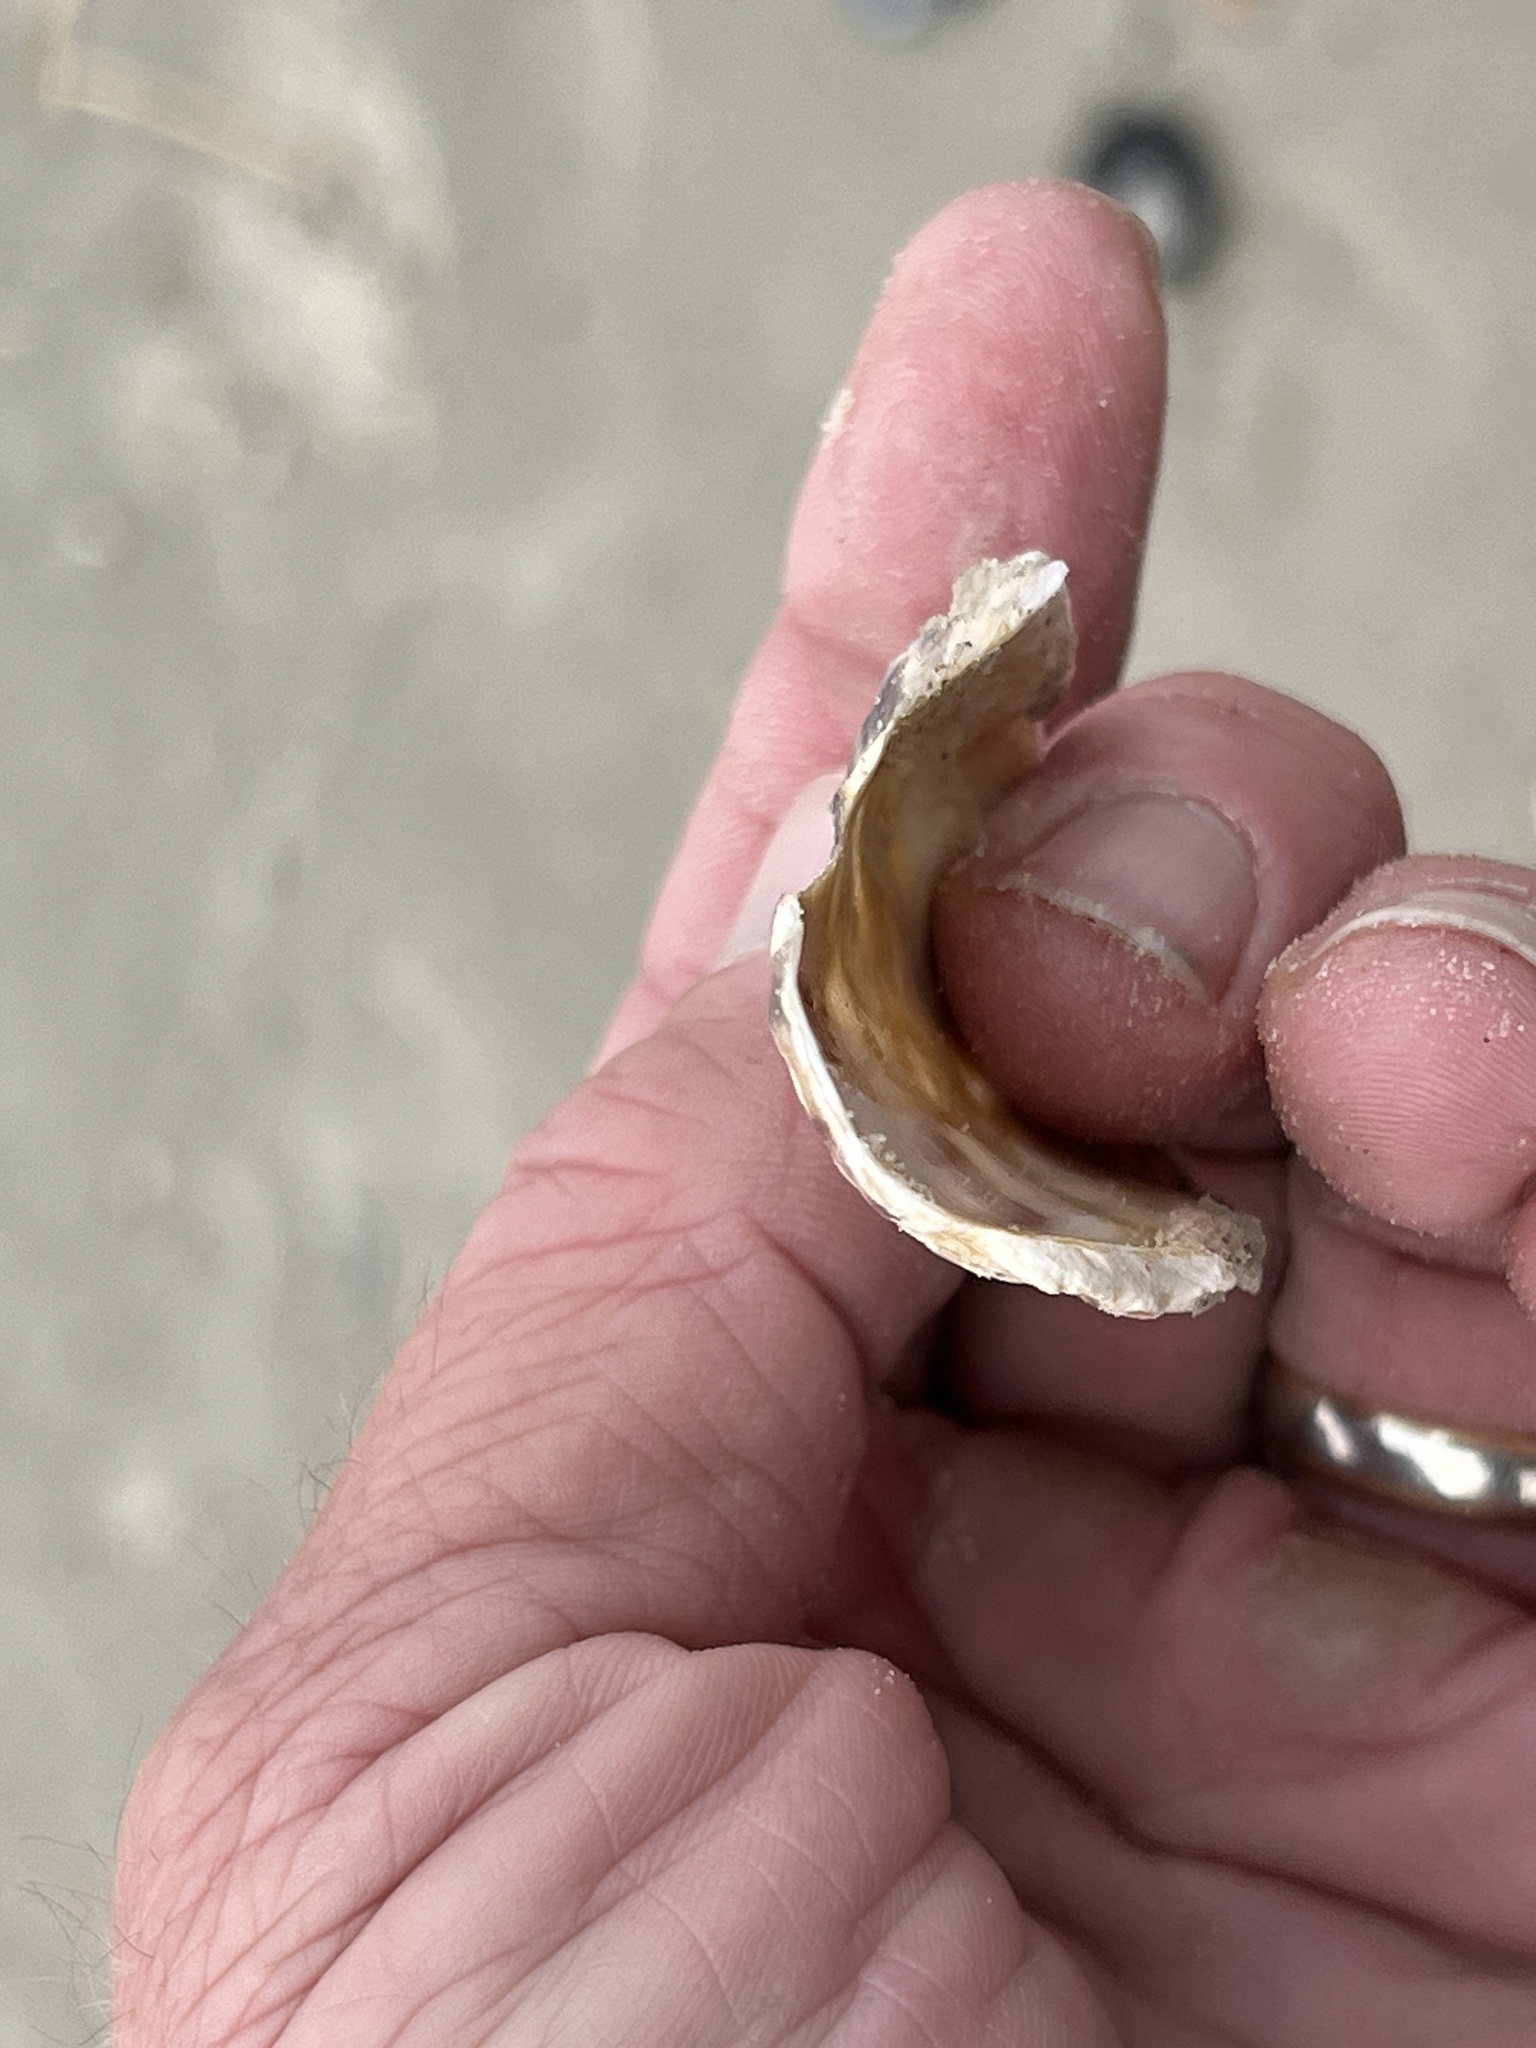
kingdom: Animalia
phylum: Mollusca
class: Bivalvia
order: Ostreida
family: Ostreidae
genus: Crassostrea
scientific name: Crassostrea virginica
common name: American oyster
